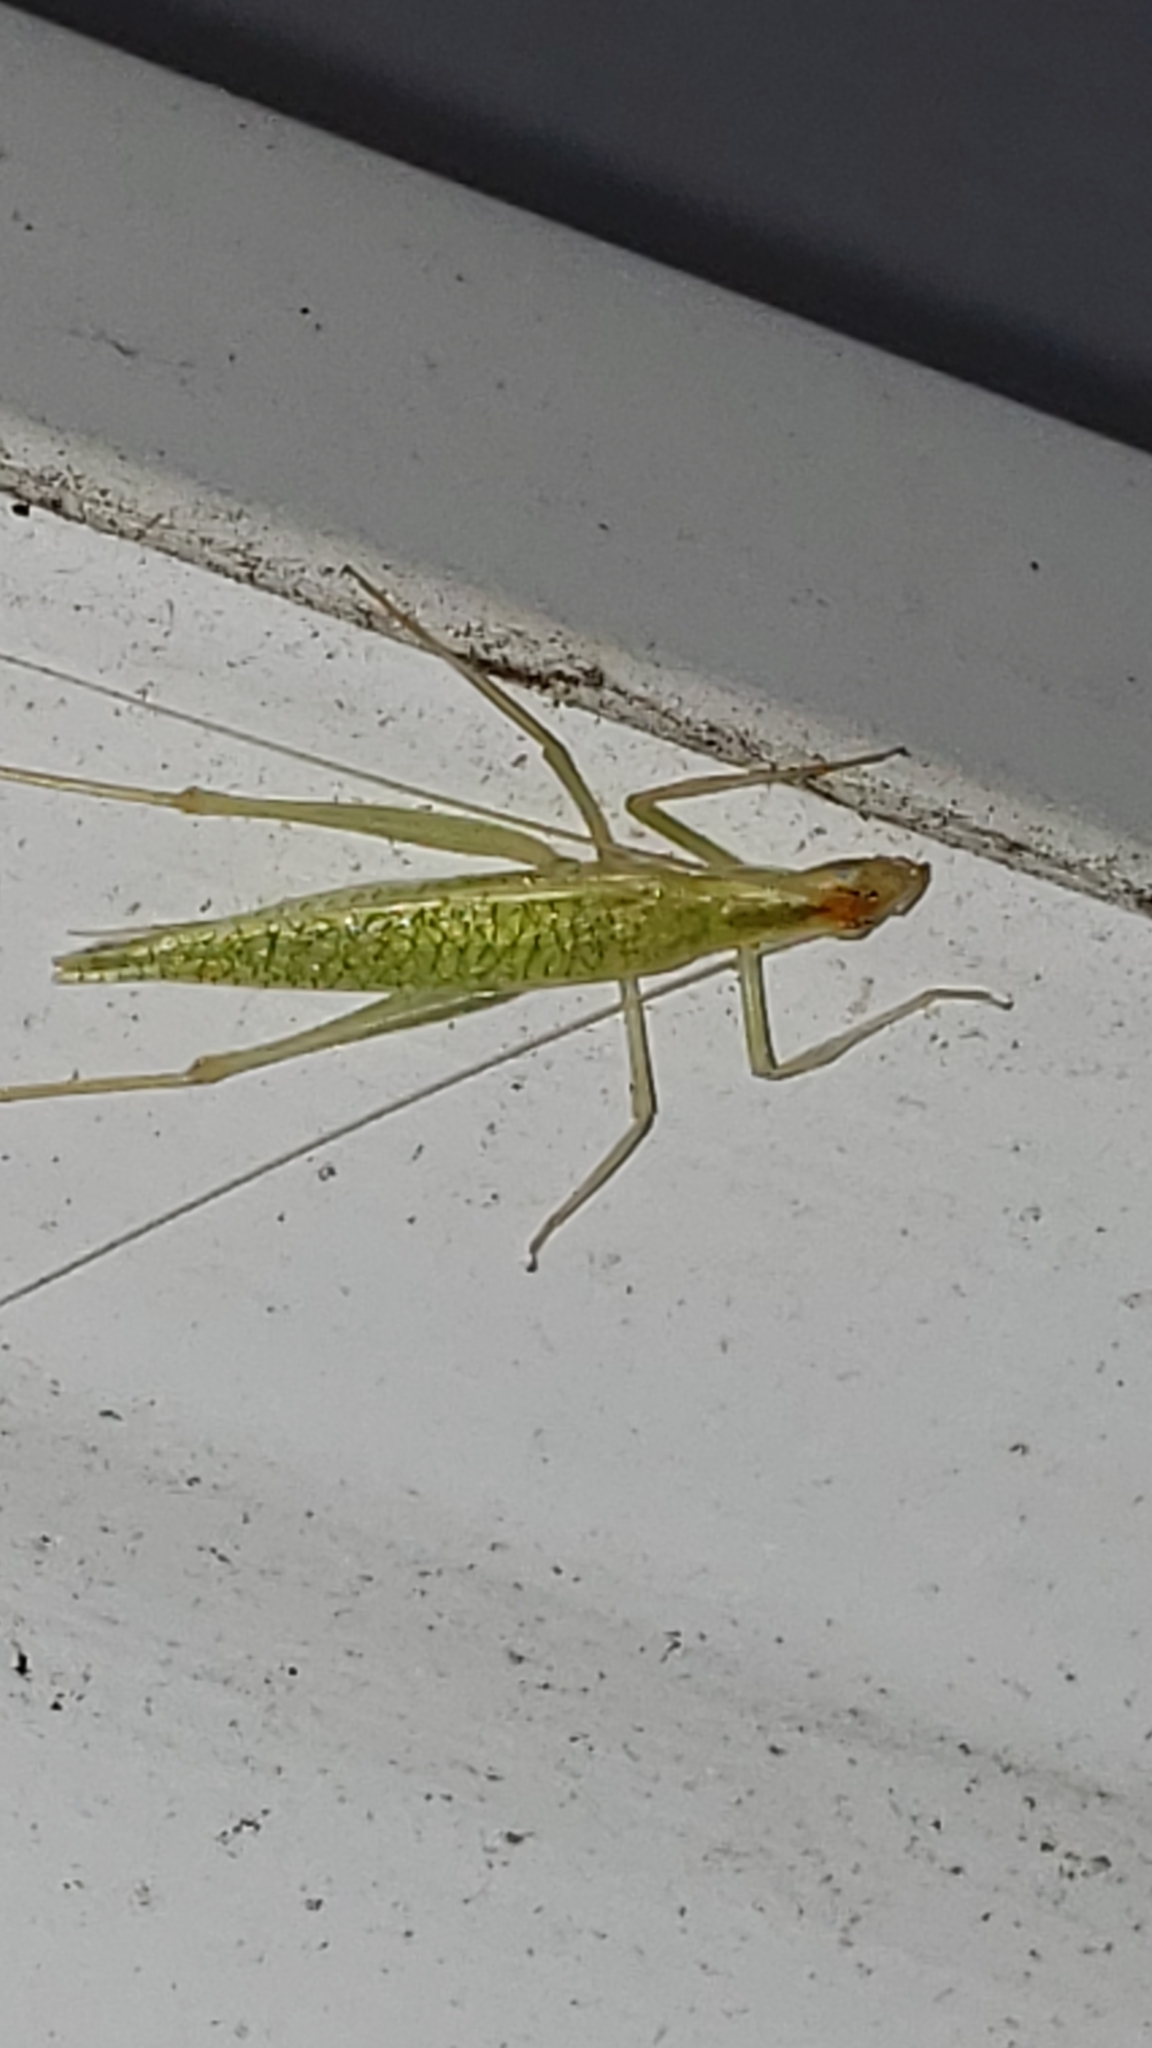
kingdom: Animalia
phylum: Arthropoda
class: Insecta
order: Orthoptera
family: Gryllidae
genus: Oecanthus
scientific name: Oecanthus niveus
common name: Narrow-winged tree cricket
